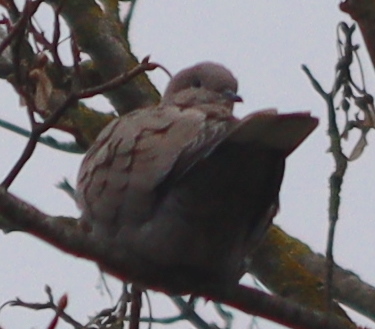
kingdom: Animalia
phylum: Chordata
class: Aves
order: Columbiformes
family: Columbidae
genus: Streptopelia
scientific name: Streptopelia decaocto
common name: Eurasian collared dove
